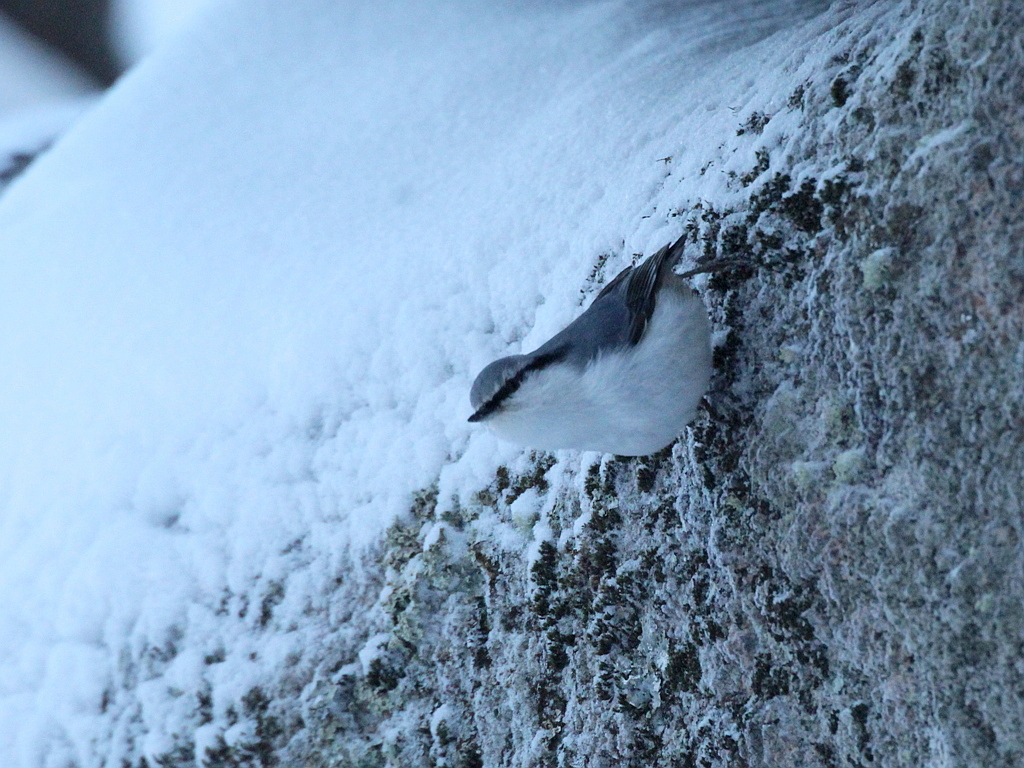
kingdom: Animalia
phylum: Chordata
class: Aves
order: Passeriformes
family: Sittidae
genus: Sitta
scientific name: Sitta europaea
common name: Eurasian nuthatch
